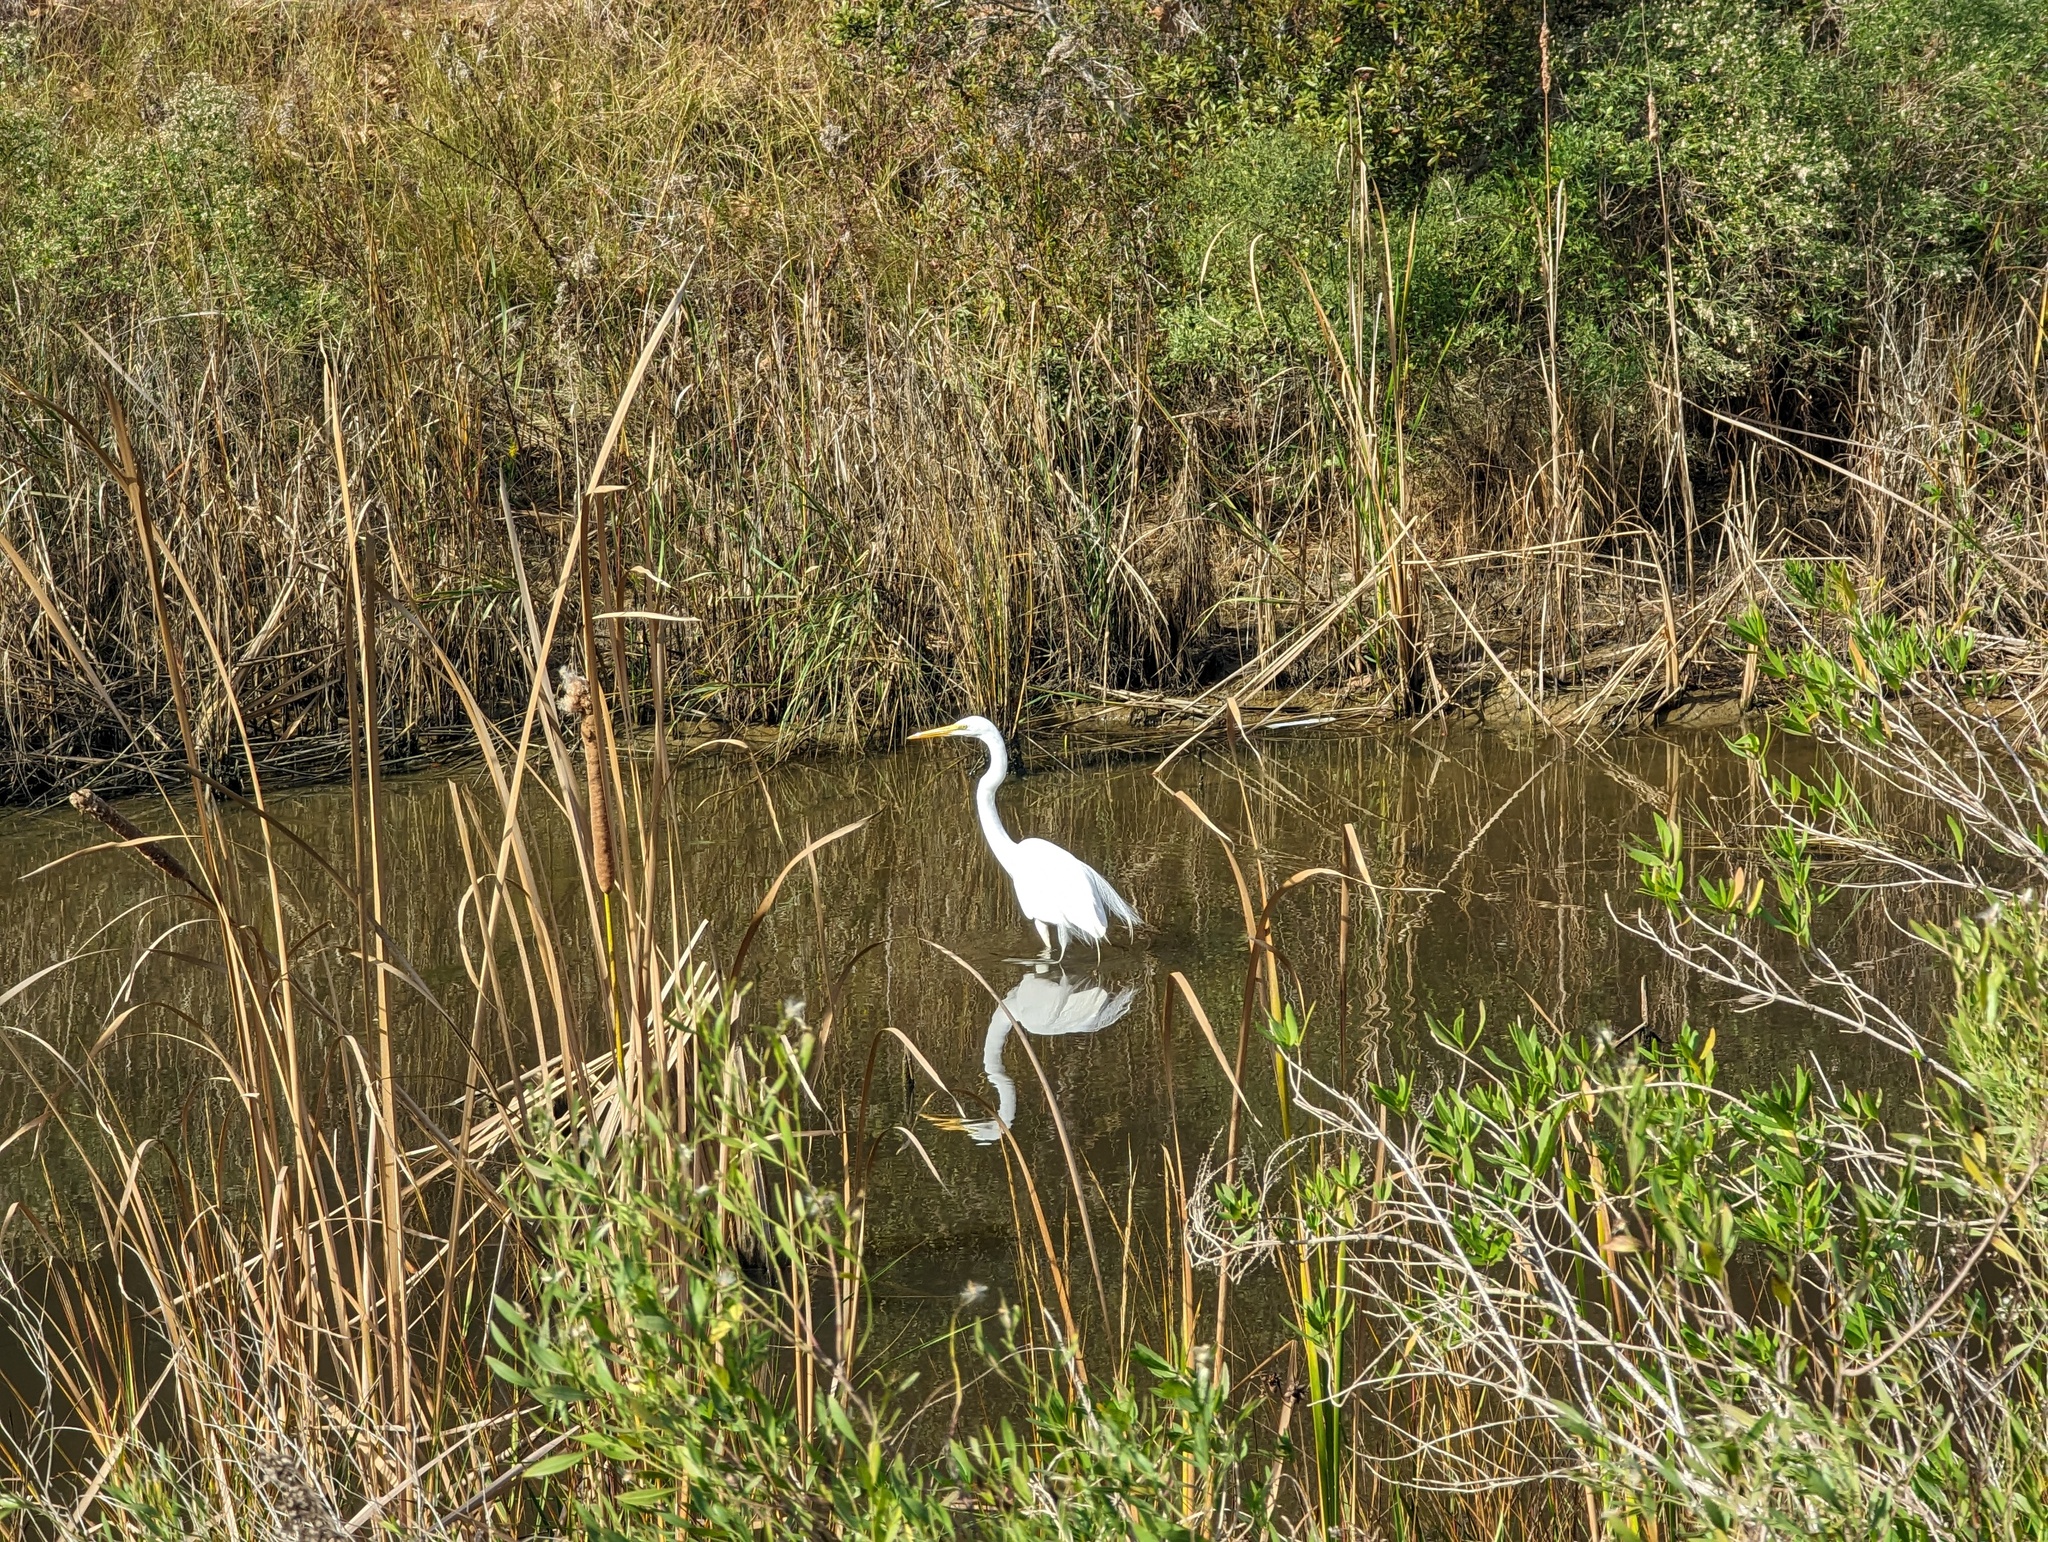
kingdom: Animalia
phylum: Chordata
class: Aves
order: Pelecaniformes
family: Ardeidae
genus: Ardea
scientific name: Ardea alba
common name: Great egret
